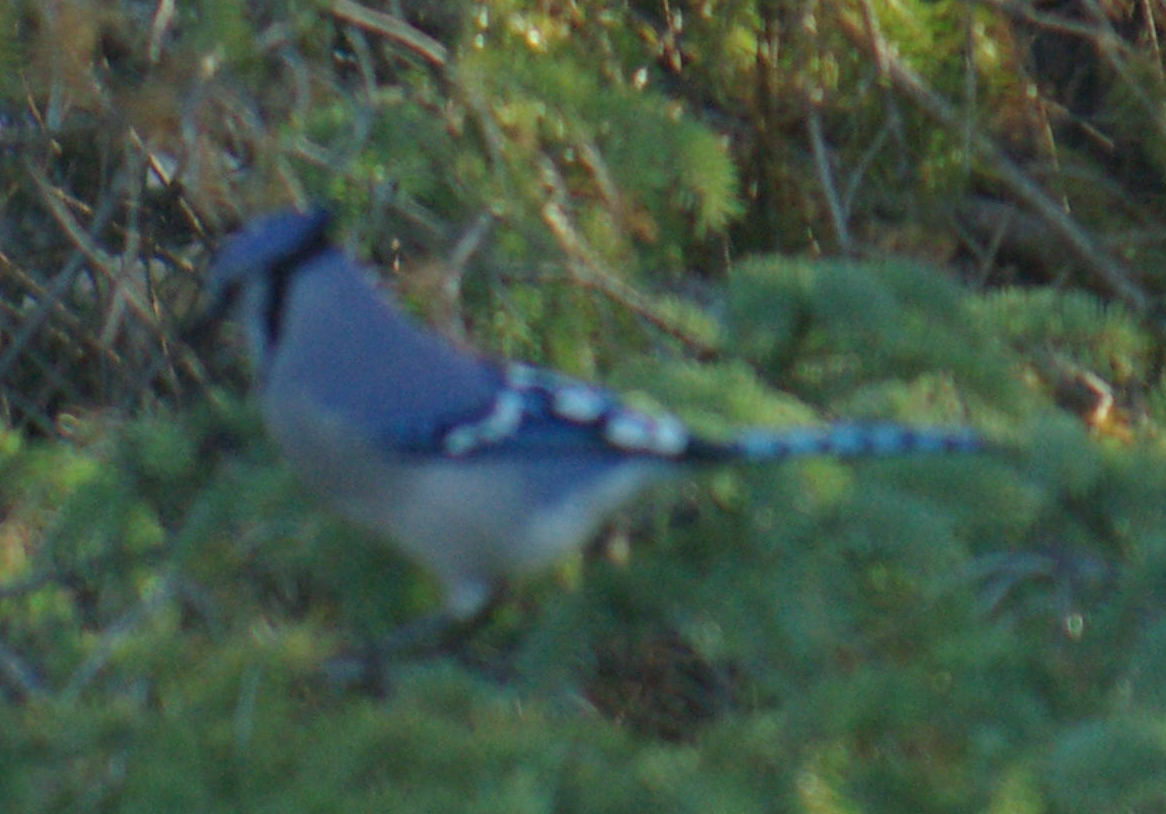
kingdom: Animalia
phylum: Chordata
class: Aves
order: Passeriformes
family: Corvidae
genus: Cyanocitta
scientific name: Cyanocitta cristata
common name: Blue jay
